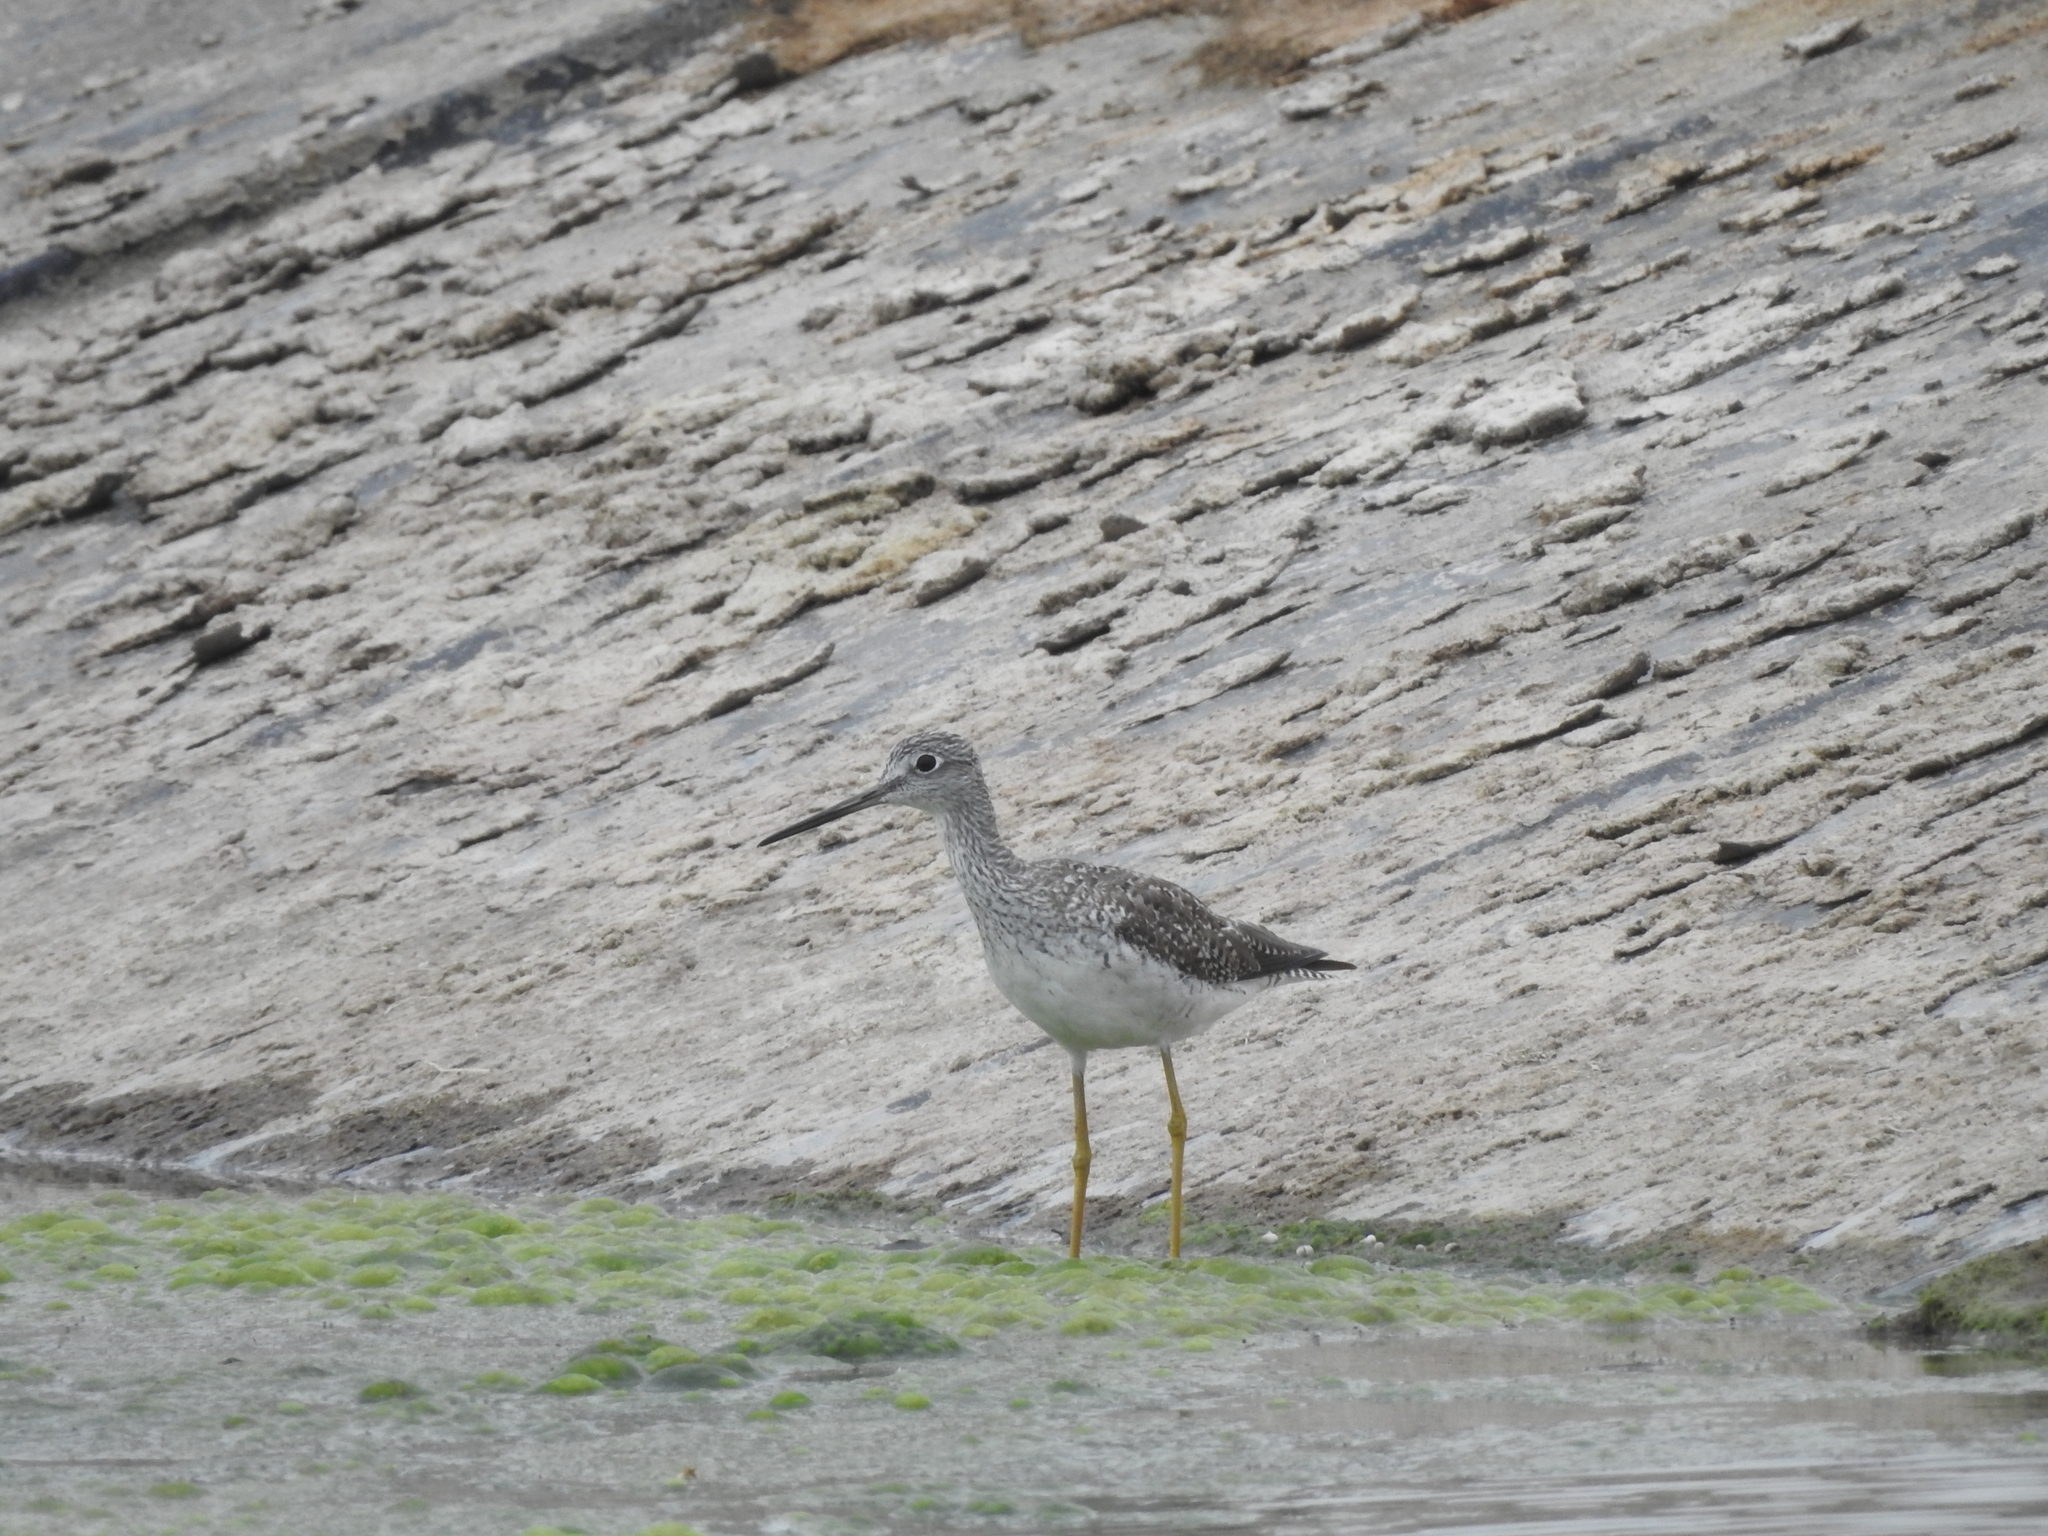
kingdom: Animalia
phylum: Chordata
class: Aves
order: Charadriiformes
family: Scolopacidae
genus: Tringa
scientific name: Tringa melanoleuca
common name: Greater yellowlegs
